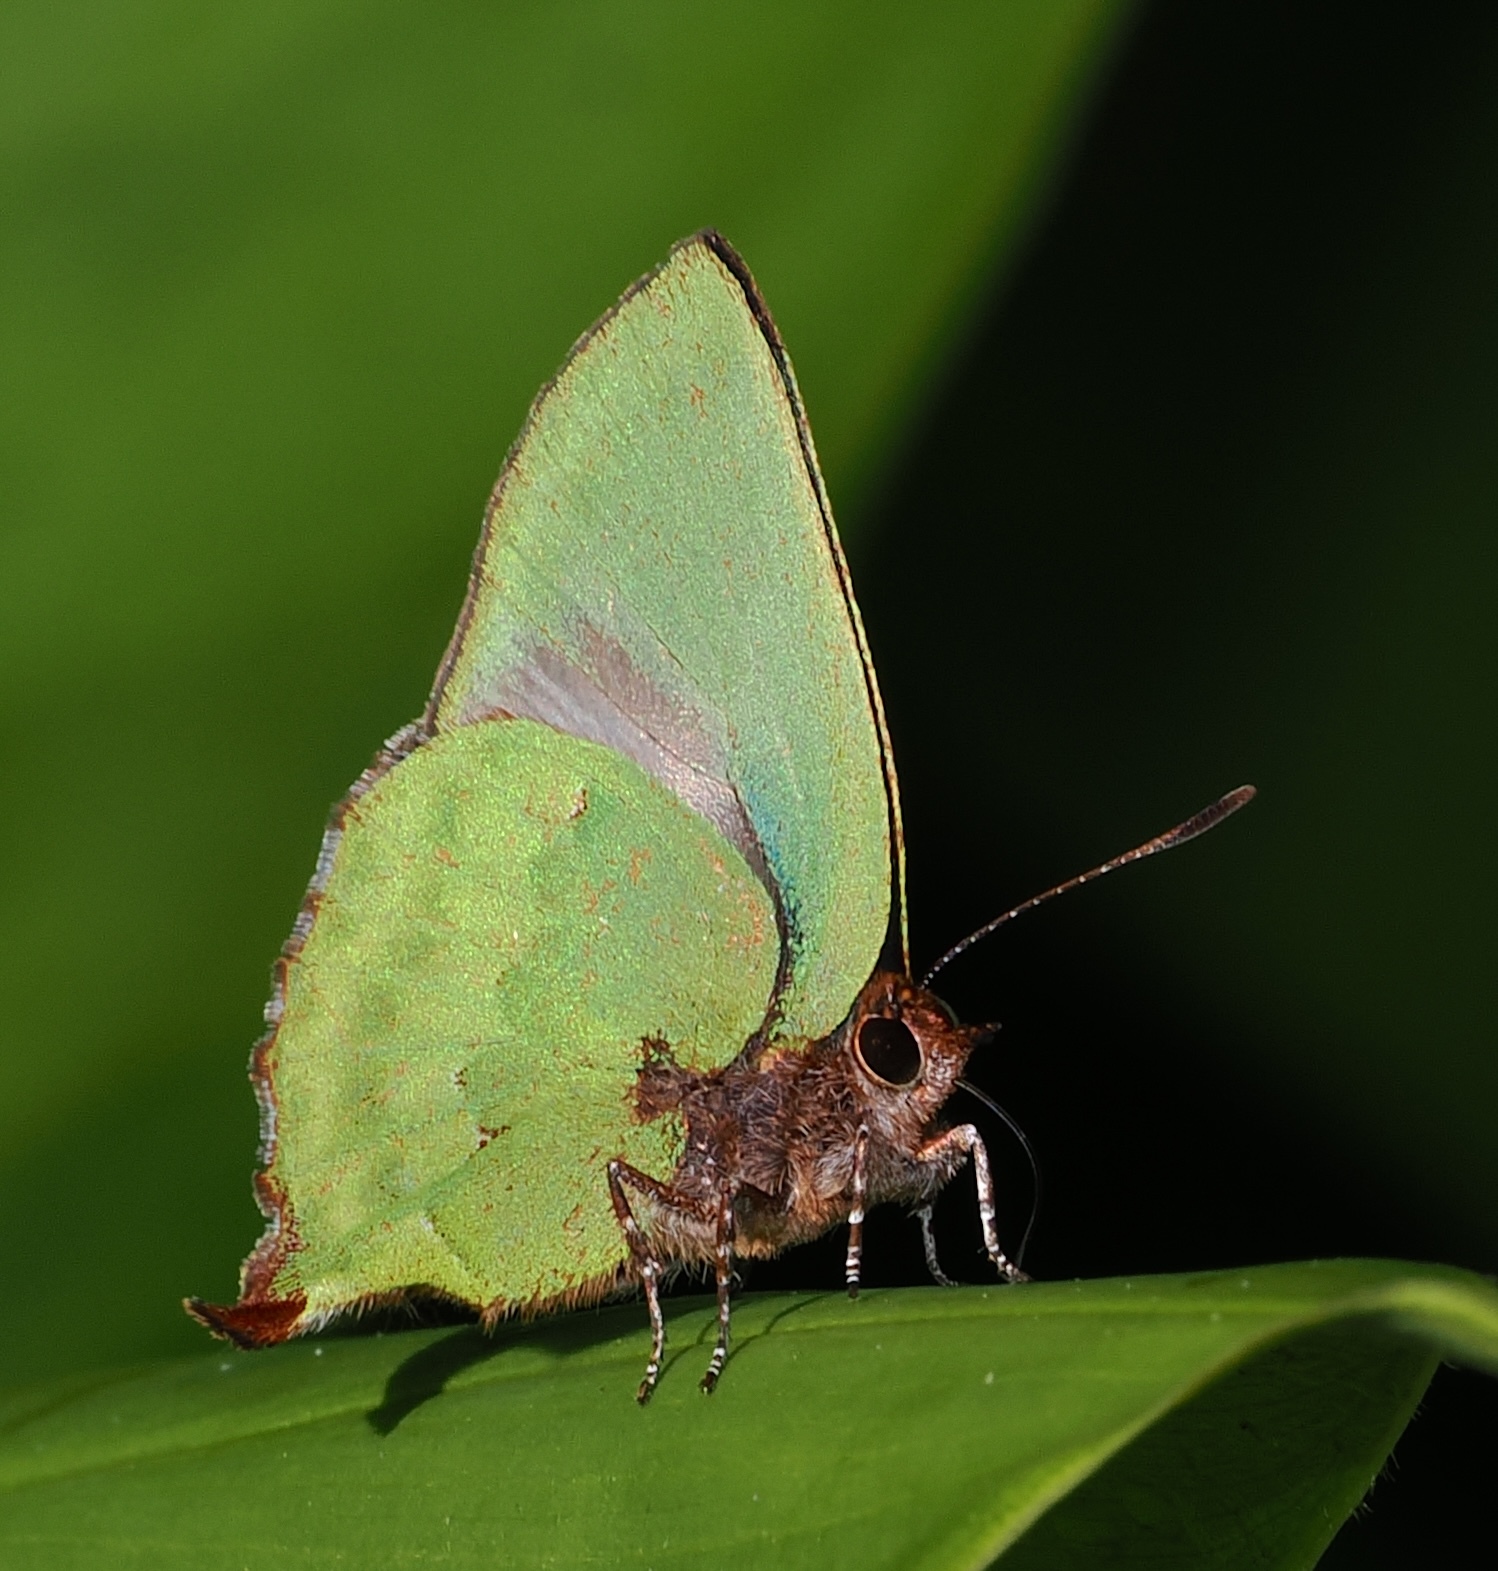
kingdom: Animalia
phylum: Arthropoda
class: Insecta
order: Lepidoptera
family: Lycaenidae
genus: Cyanophrys
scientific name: Cyanophrys pseudolongula
